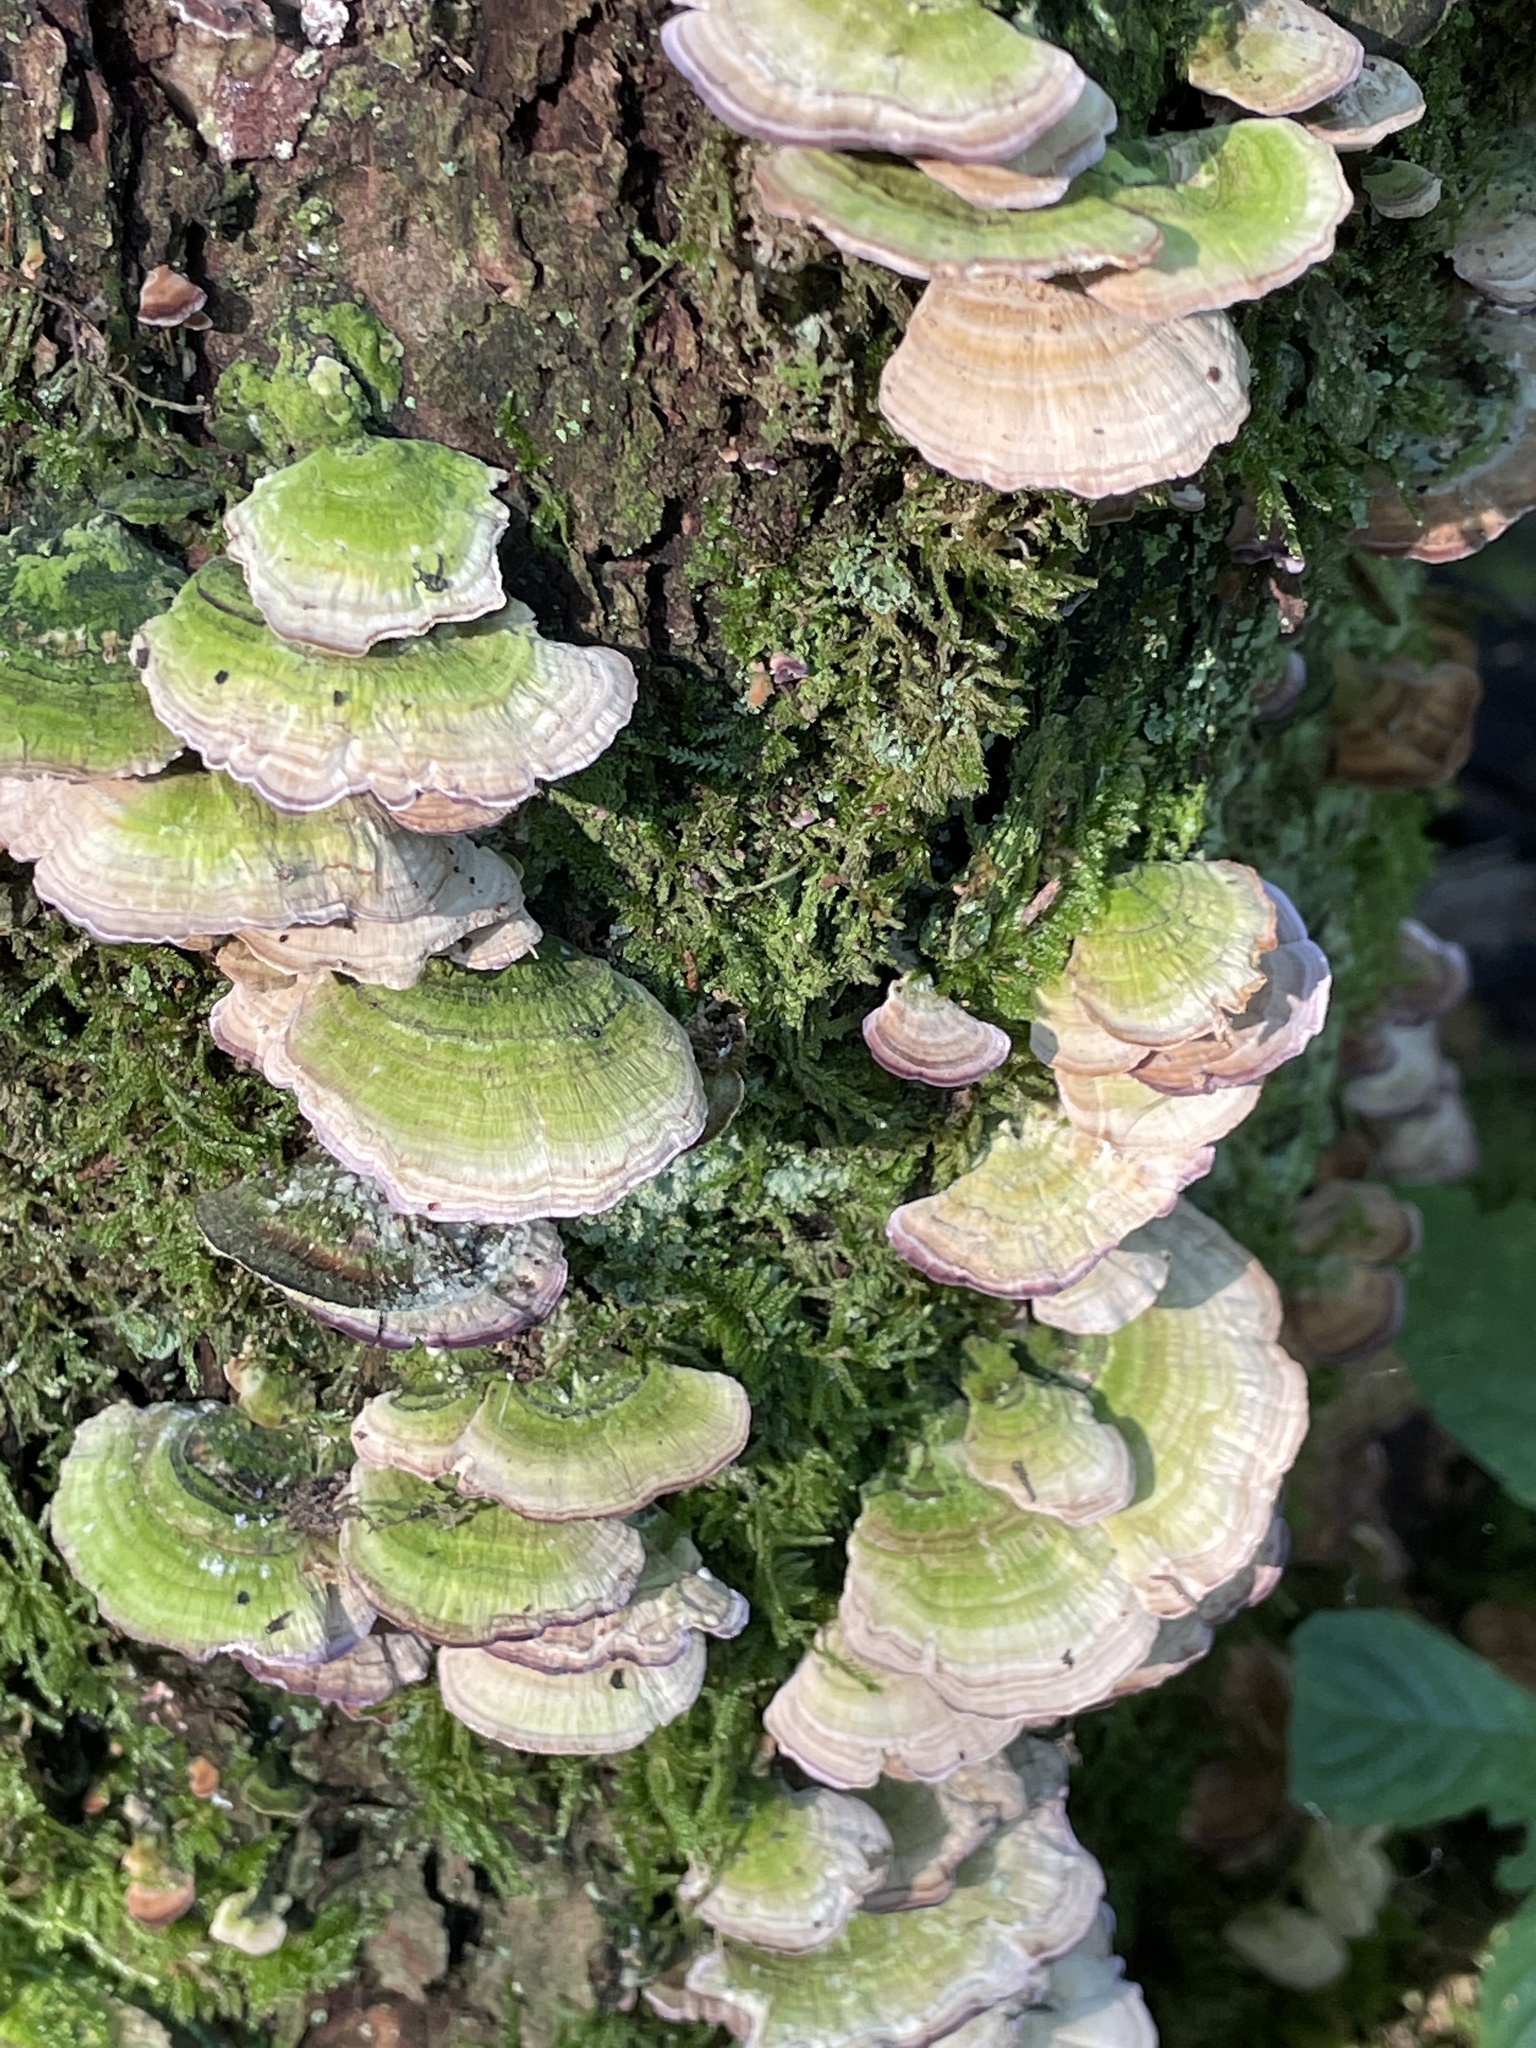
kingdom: Fungi
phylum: Basidiomycota
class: Agaricomycetes
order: Hymenochaetales
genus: Trichaptum
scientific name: Trichaptum abietinum
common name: Purplepore bracket
